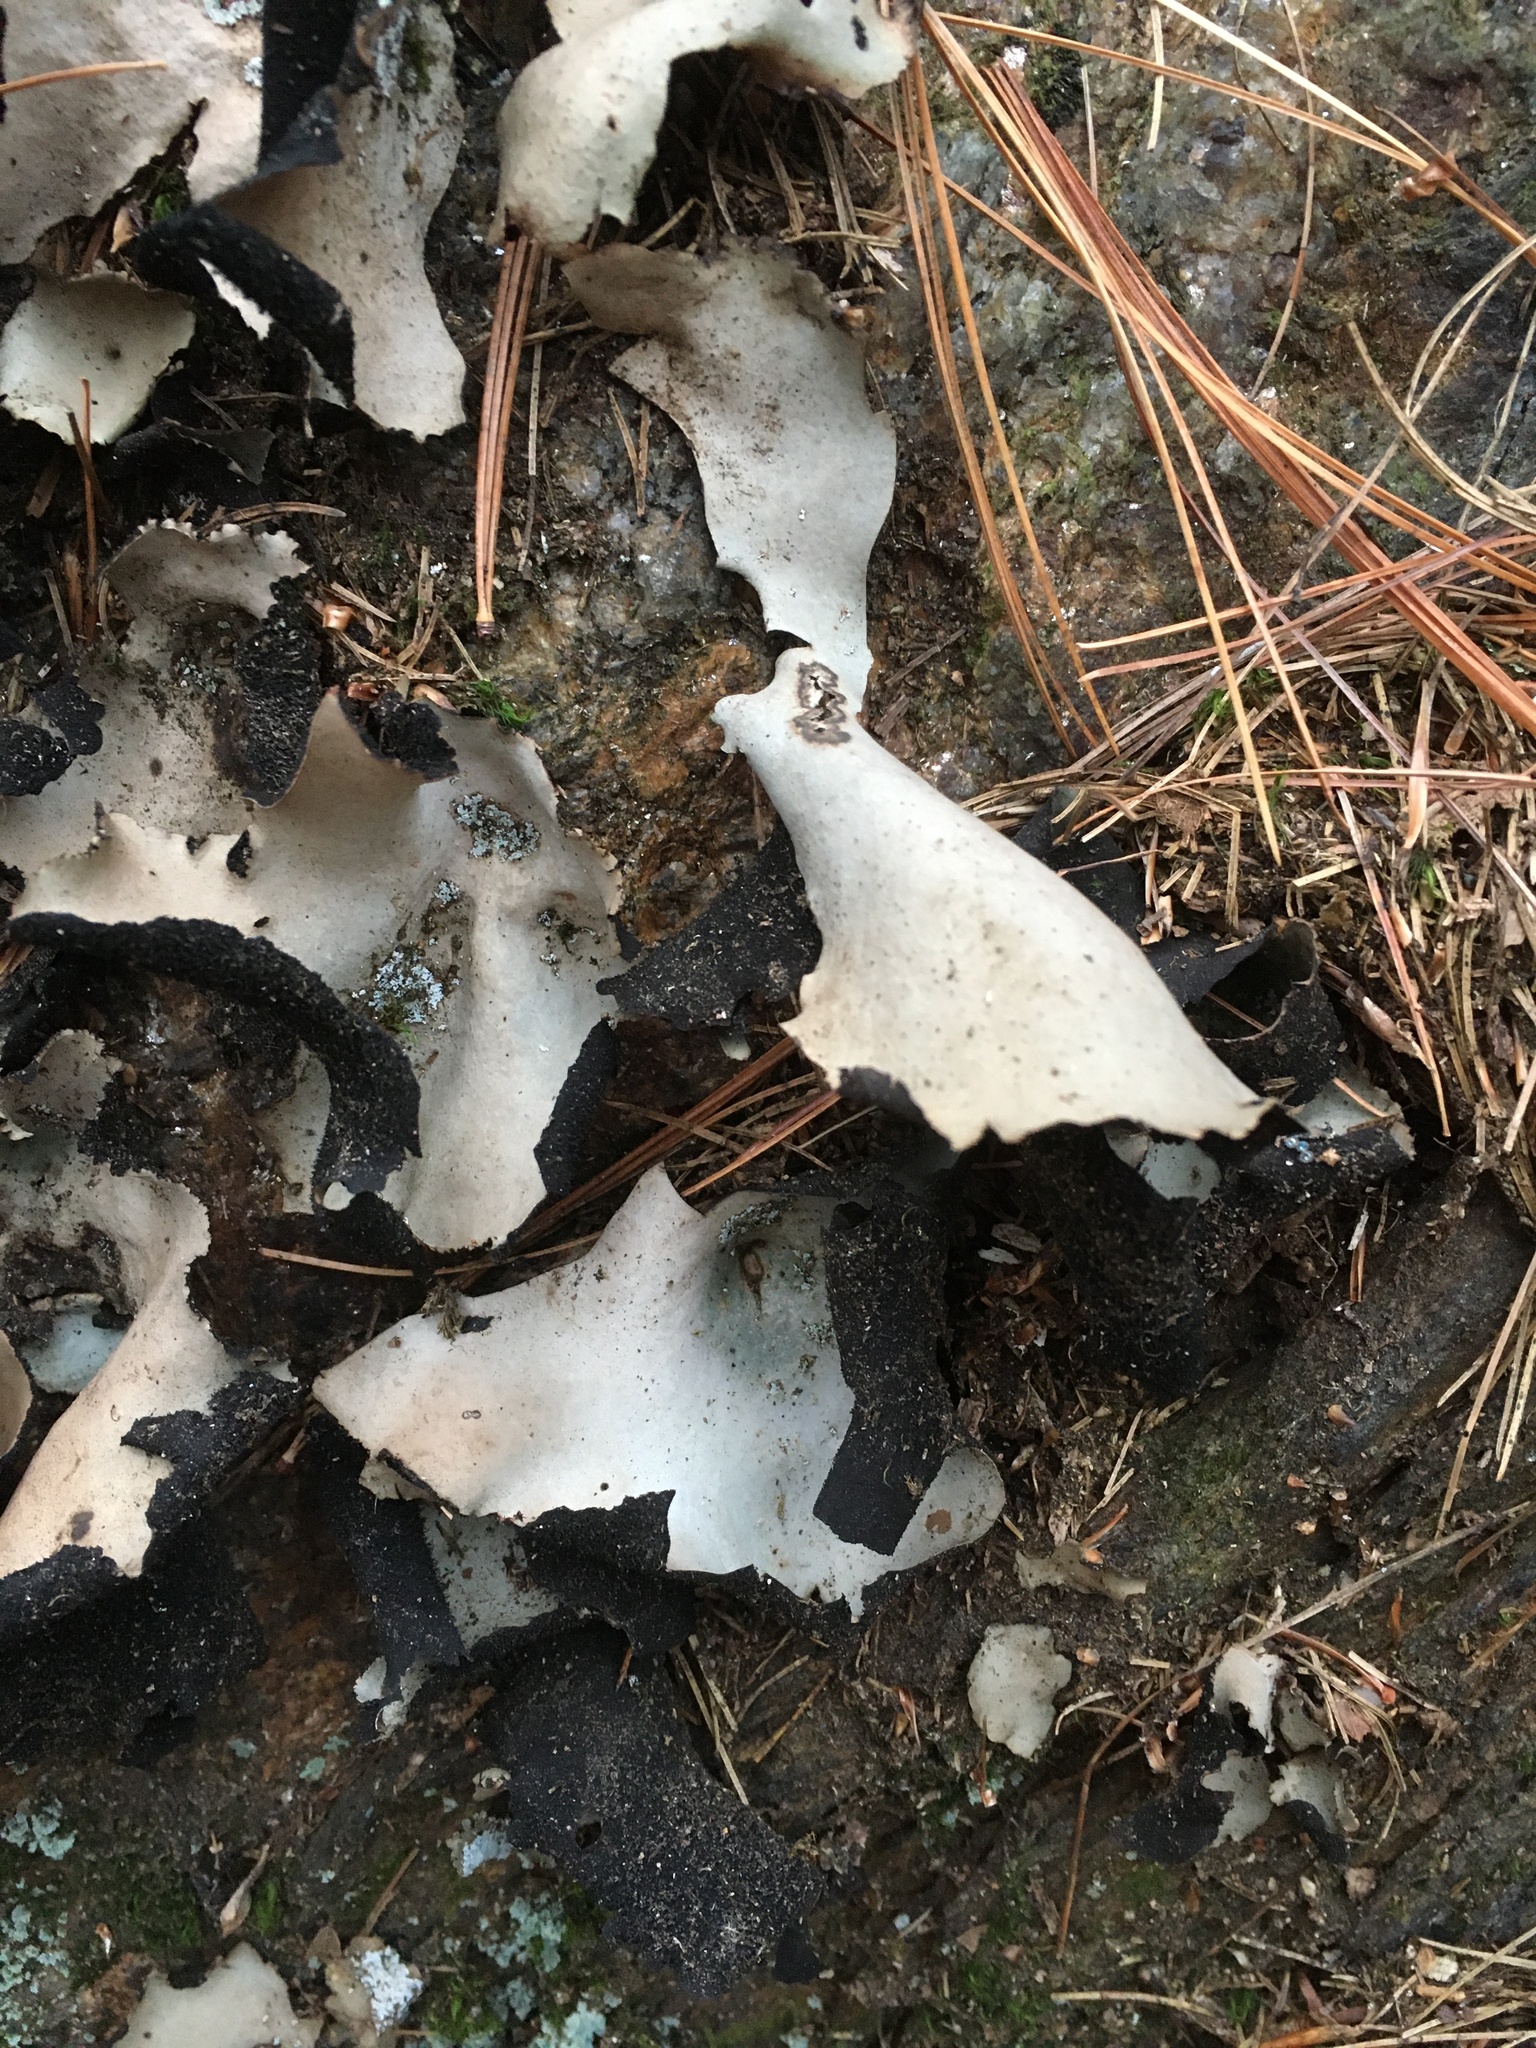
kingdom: Fungi
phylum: Ascomycota
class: Lecanoromycetes
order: Umbilicariales
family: Umbilicariaceae
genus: Umbilicaria
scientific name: Umbilicaria americana
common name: Frosted rock tripe
